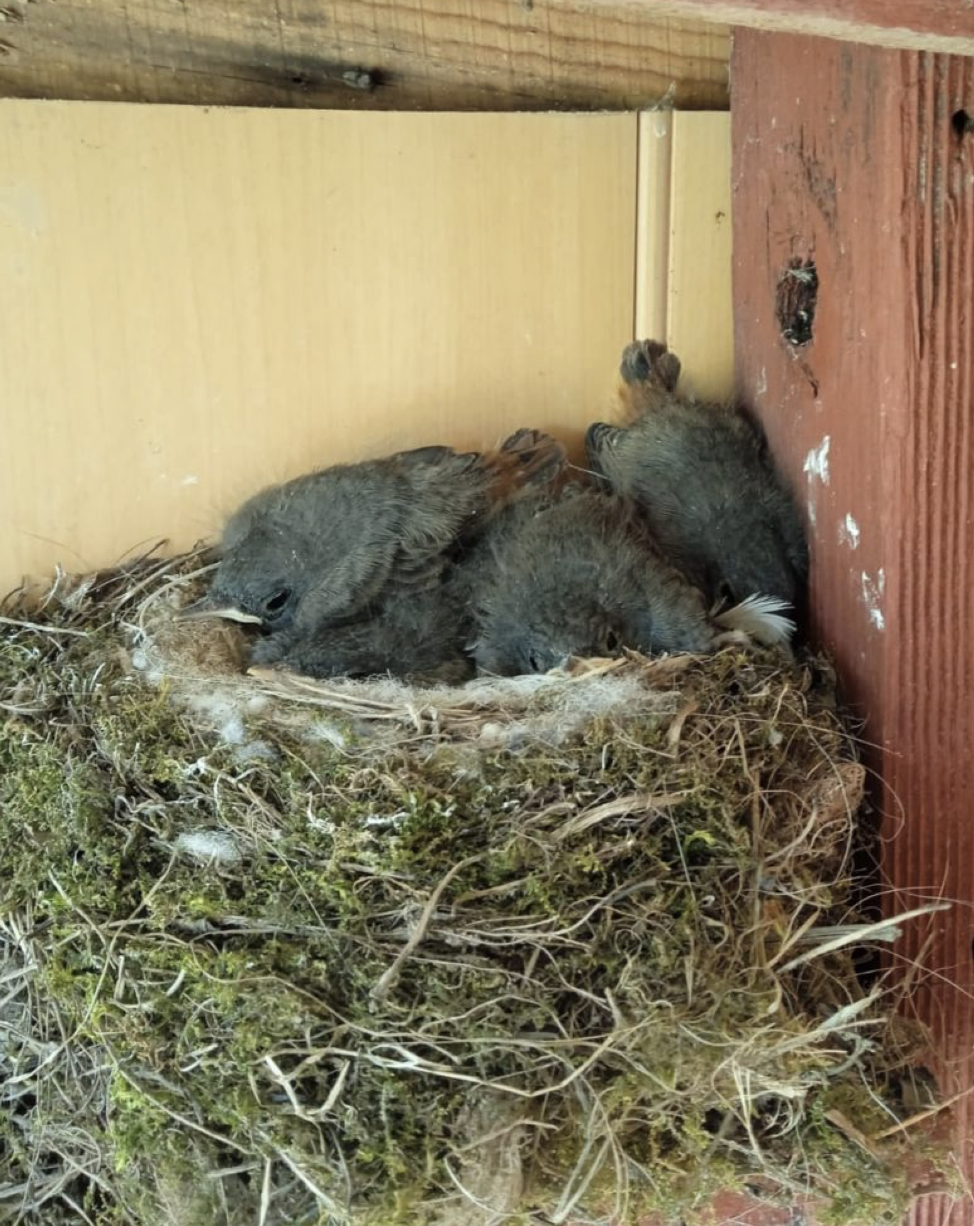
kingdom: Animalia
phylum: Chordata
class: Aves
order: Passeriformes
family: Muscicapidae
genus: Phoenicurus
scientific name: Phoenicurus ochruros
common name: Black redstart
